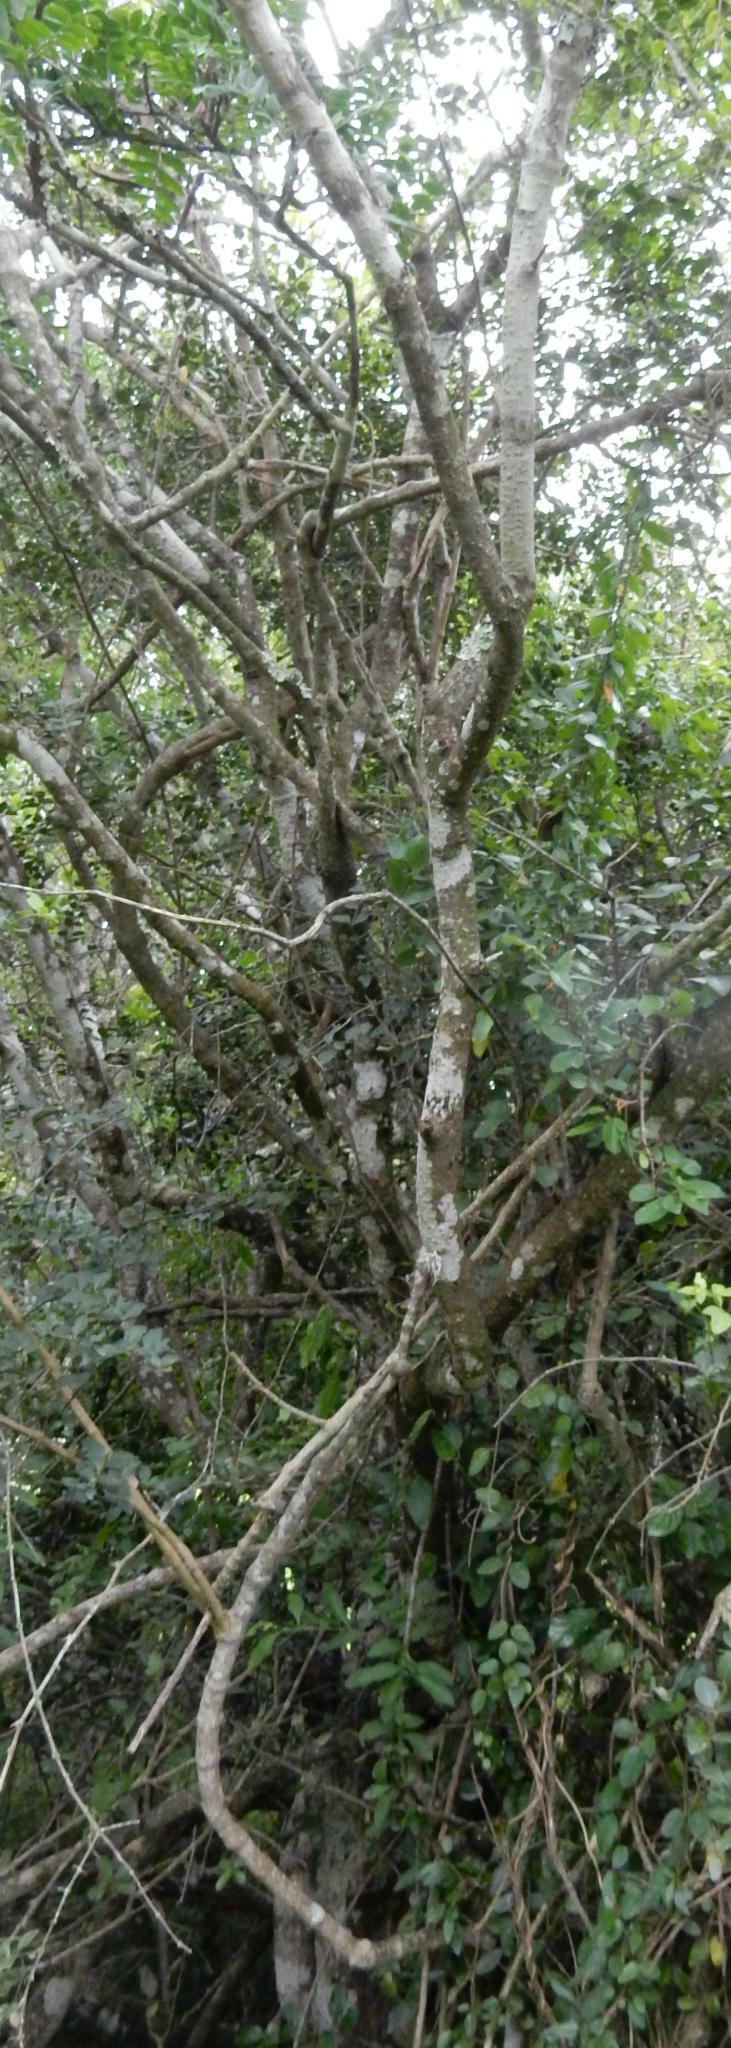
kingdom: Plantae
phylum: Tracheophyta
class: Magnoliopsida
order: Sapindales
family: Rutaceae
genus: Ptaeroxylon
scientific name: Ptaeroxylon obliquum
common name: Sneezewood
